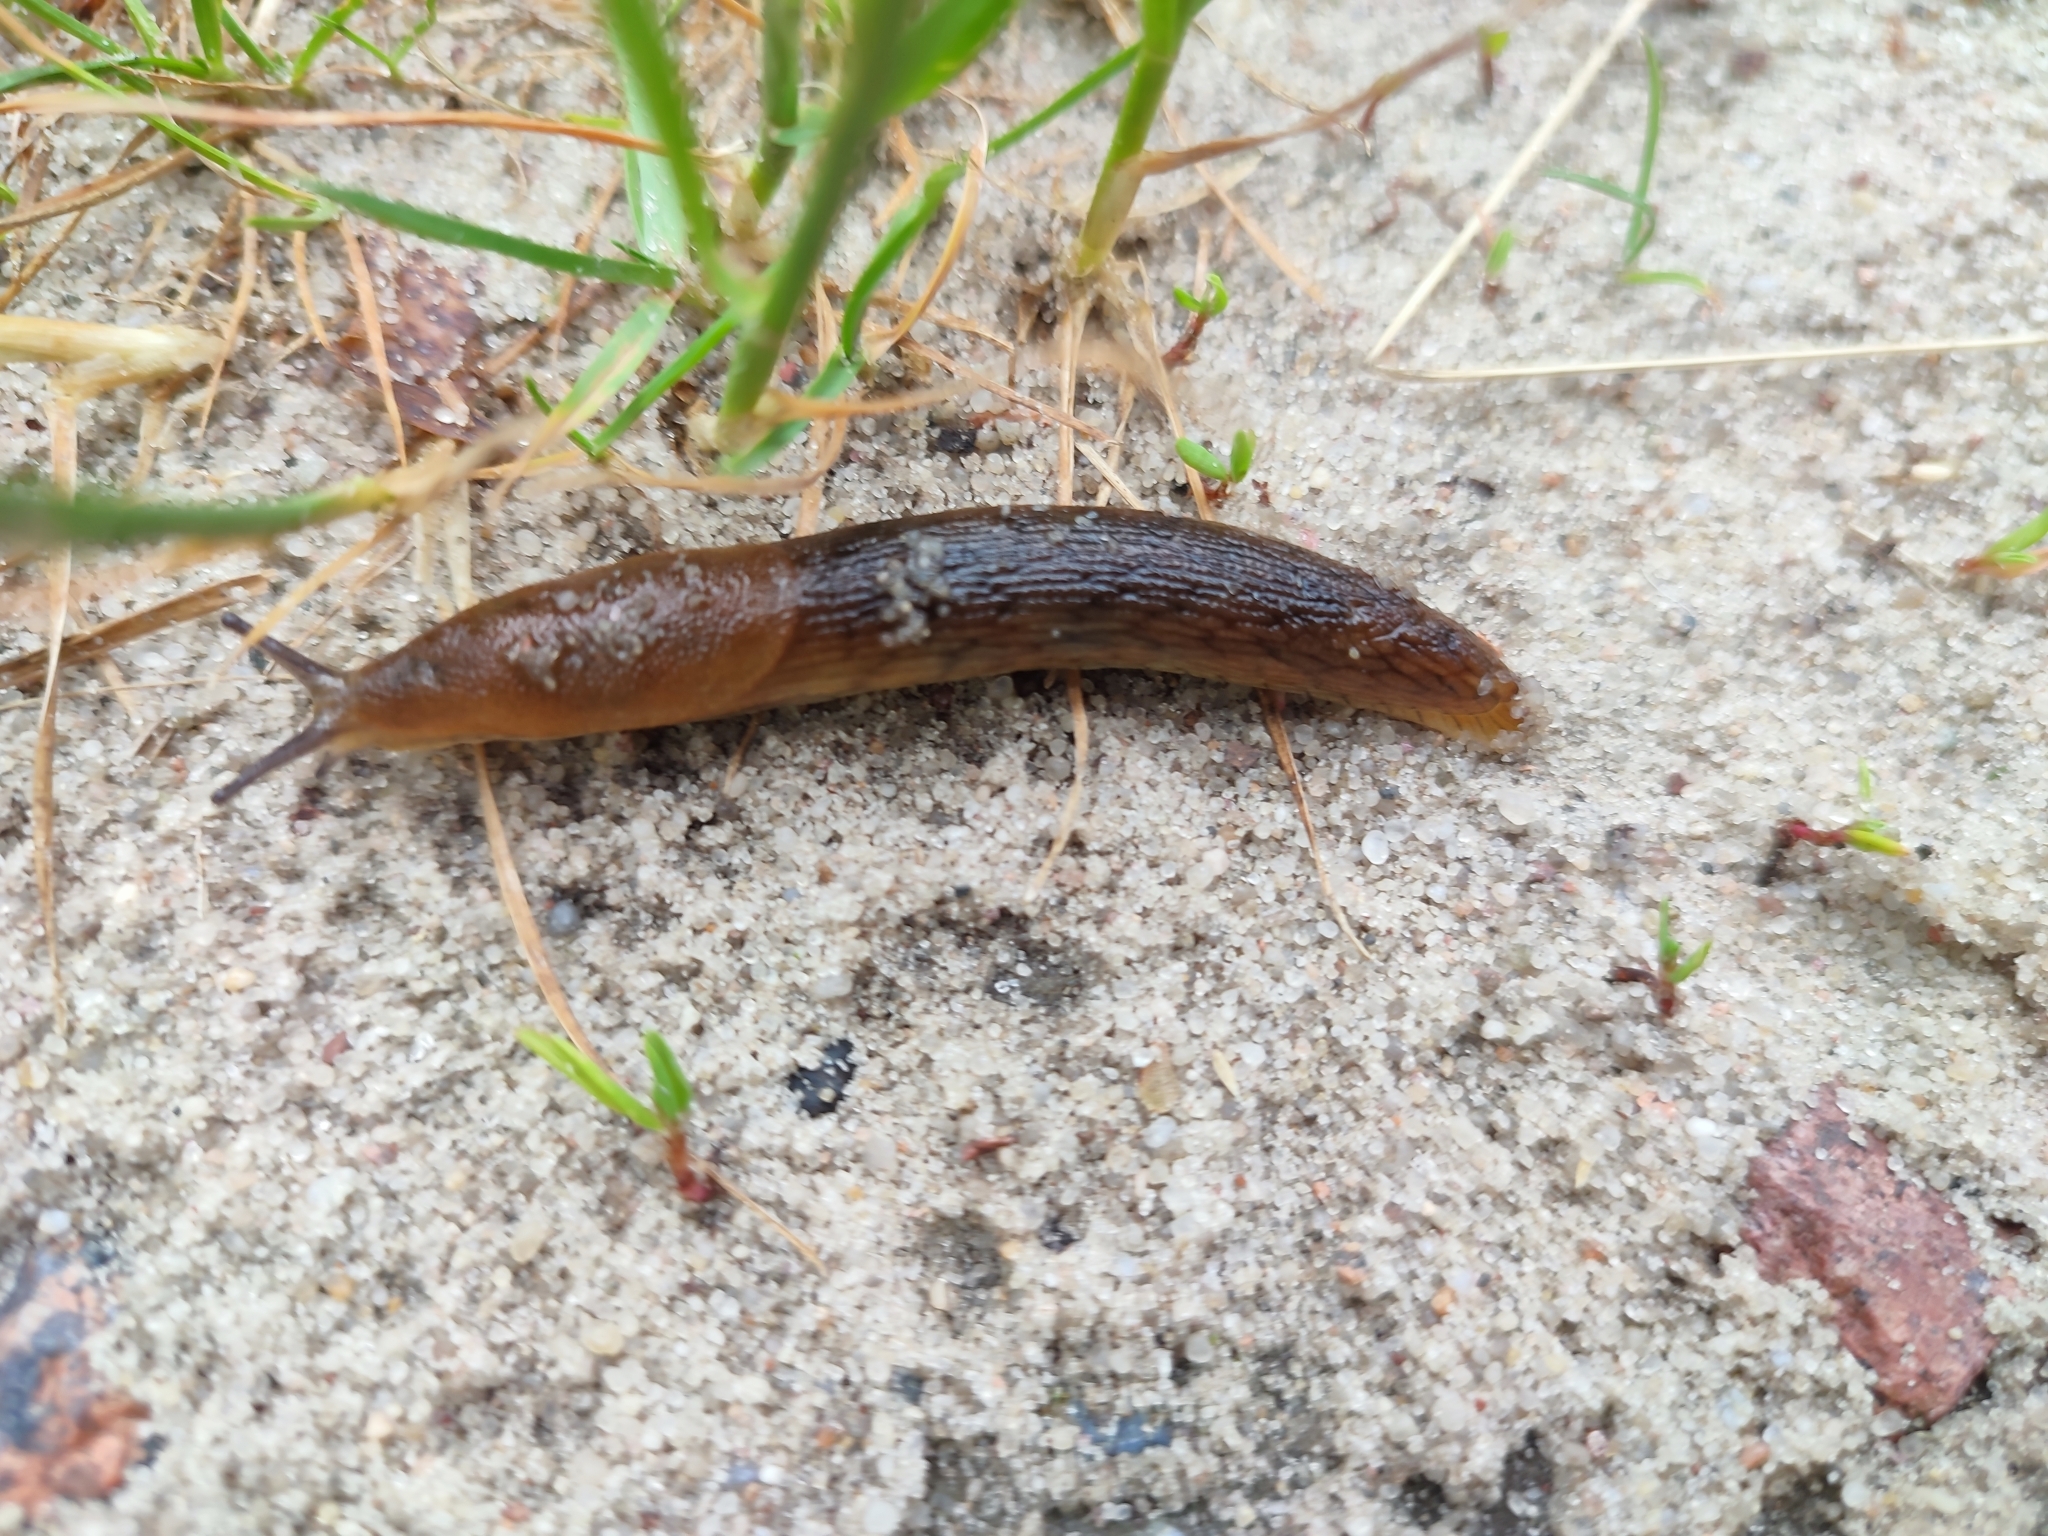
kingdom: Animalia
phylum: Mollusca
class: Gastropoda
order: Stylommatophora
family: Arionidae
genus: Arion
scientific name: Arion fuscus
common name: Northern dusky slug
